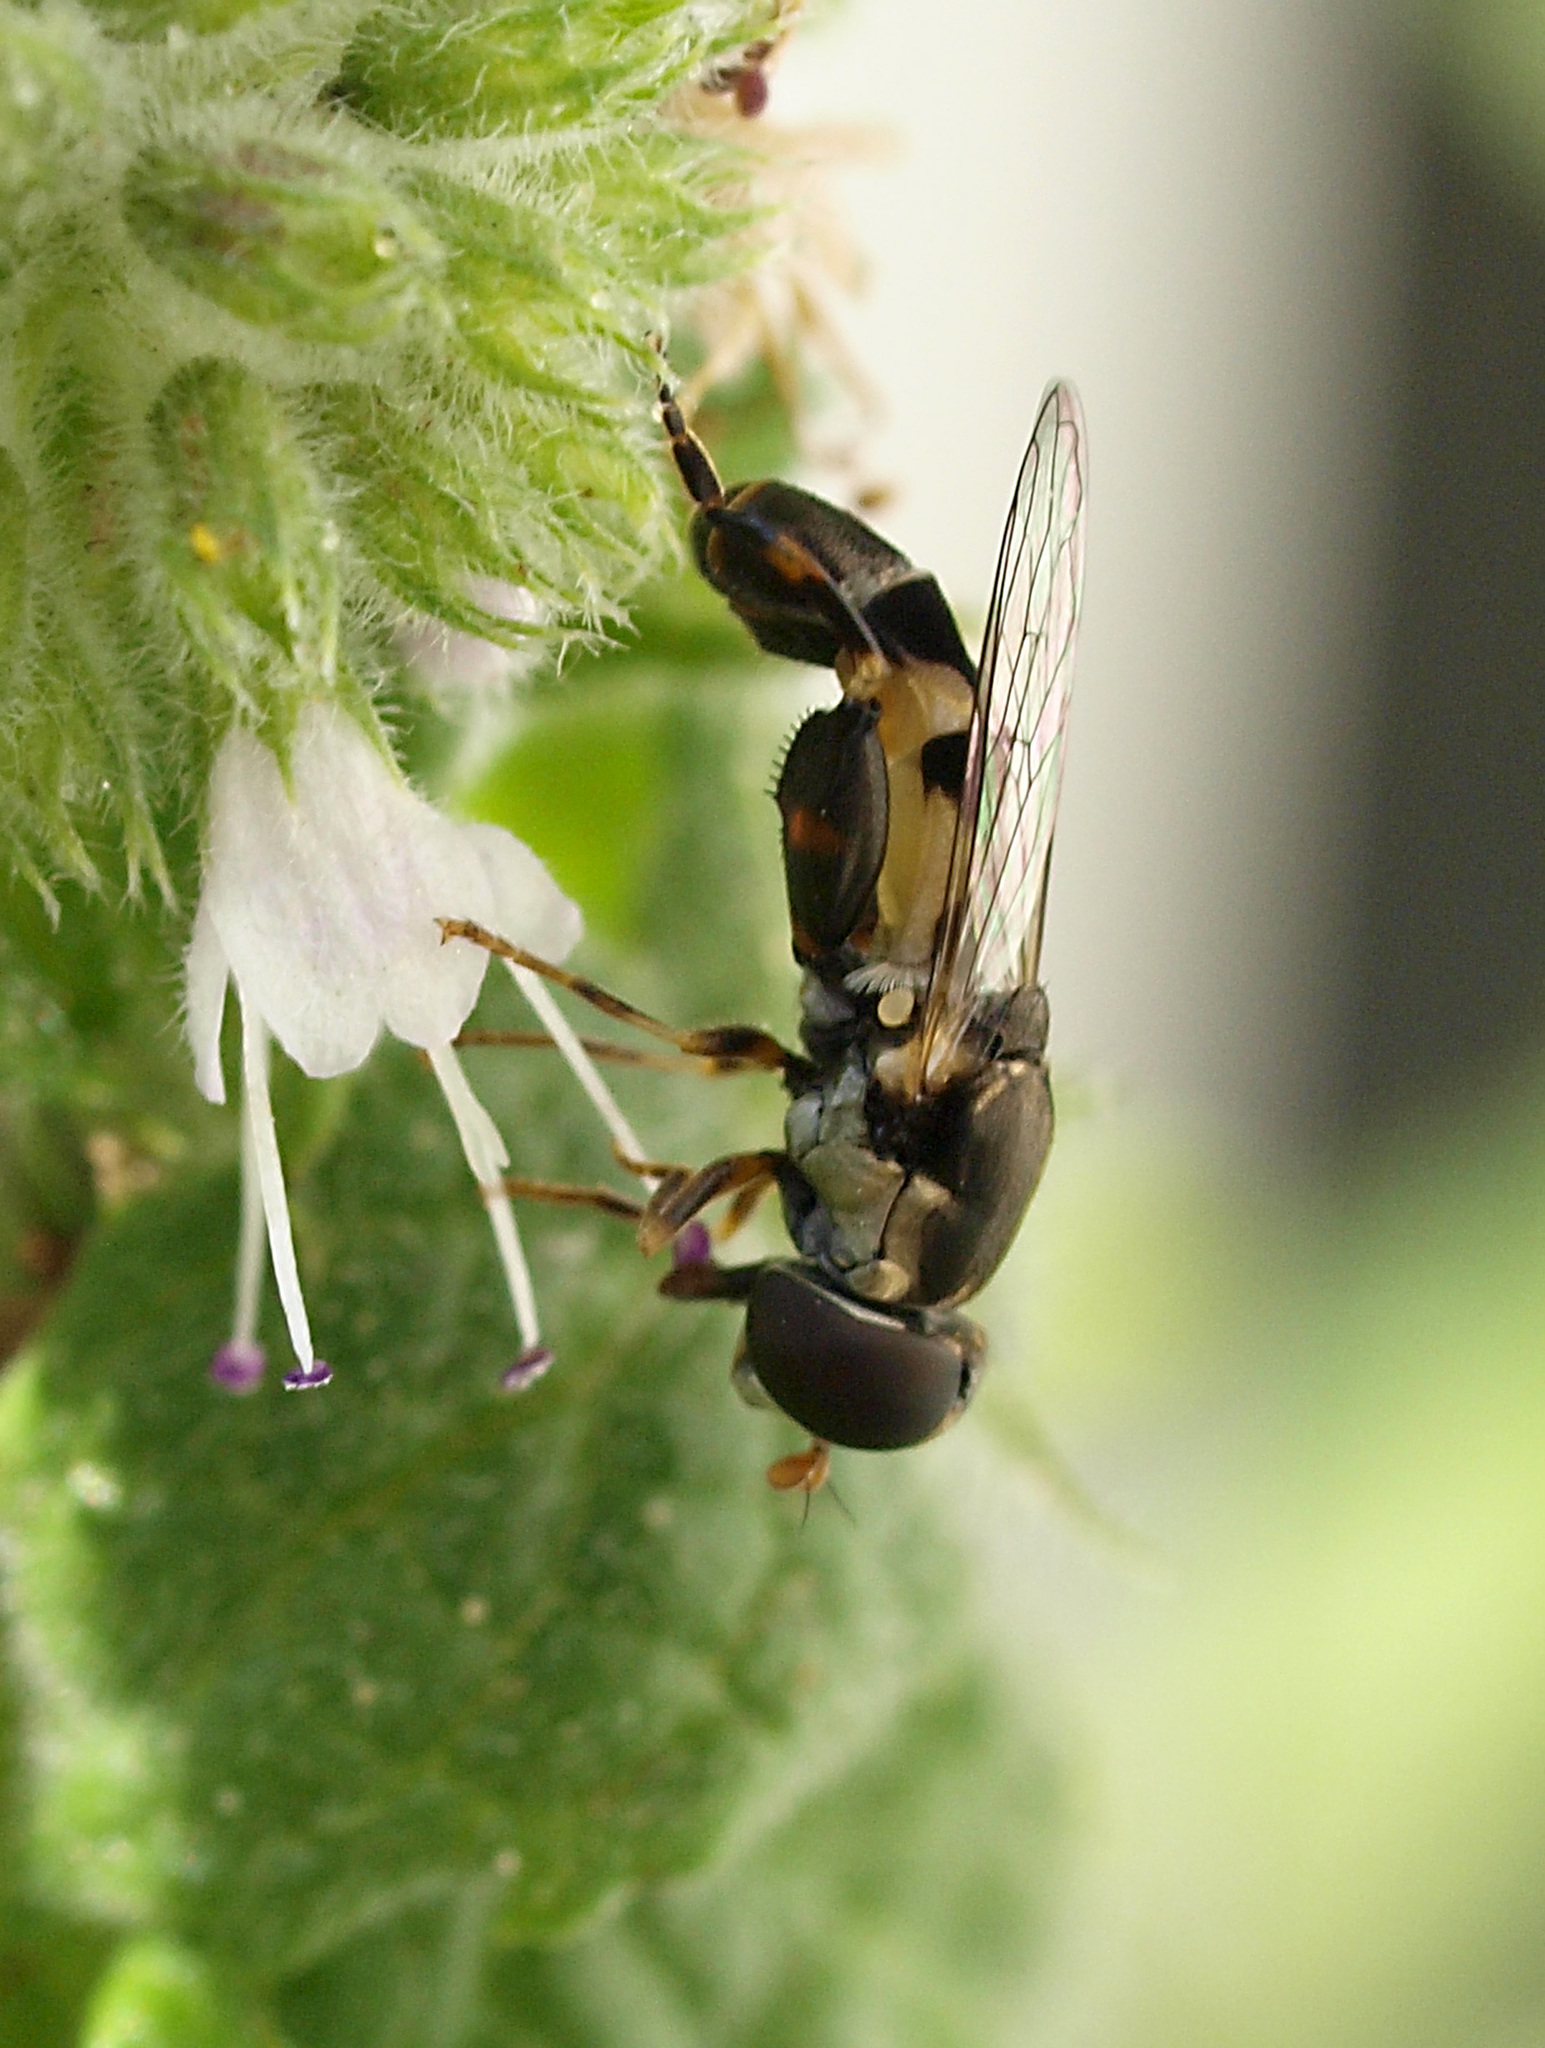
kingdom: Animalia
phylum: Arthropoda
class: Insecta
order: Diptera
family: Syrphidae
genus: Syritta
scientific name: Syritta pipiens
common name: Hover fly
